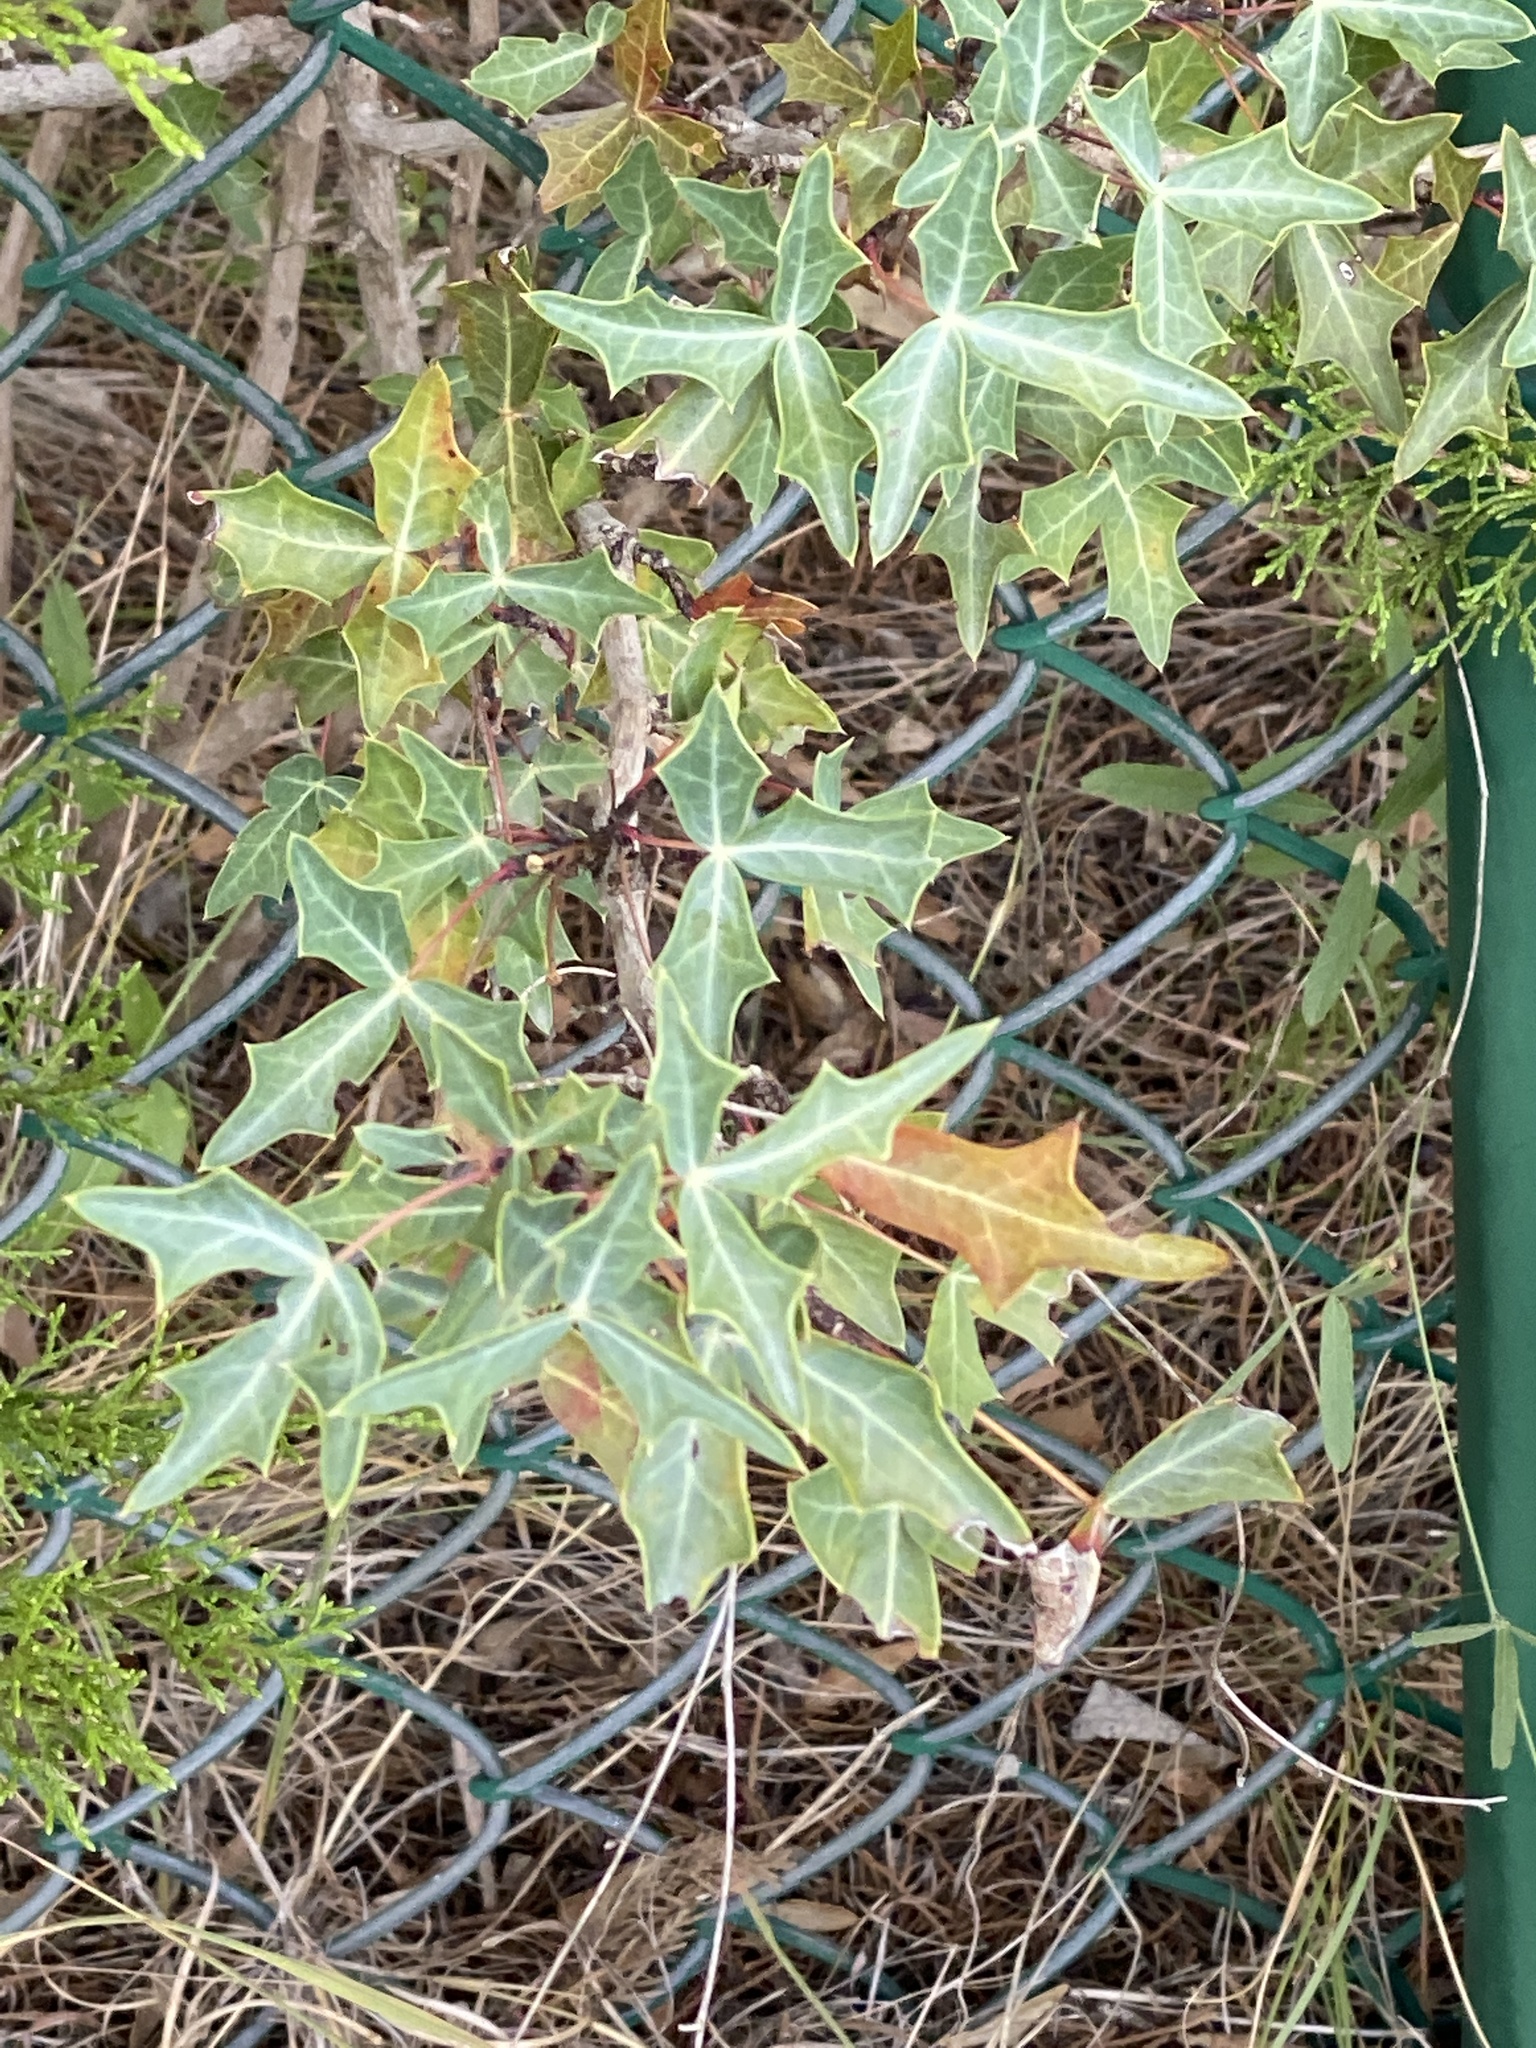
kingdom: Plantae
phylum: Tracheophyta
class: Magnoliopsida
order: Ranunculales
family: Berberidaceae
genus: Alloberberis
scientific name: Alloberberis trifoliolata
